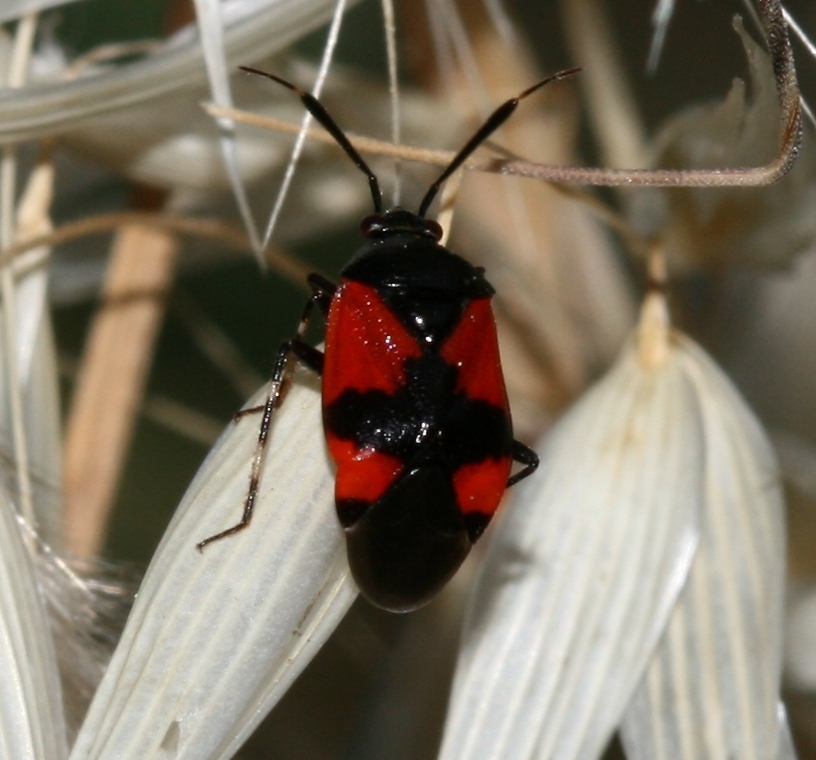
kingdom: Animalia
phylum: Arthropoda
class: Insecta
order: Hemiptera
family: Miridae
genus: Deraeocoris
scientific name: Deraeocoris rutilus
